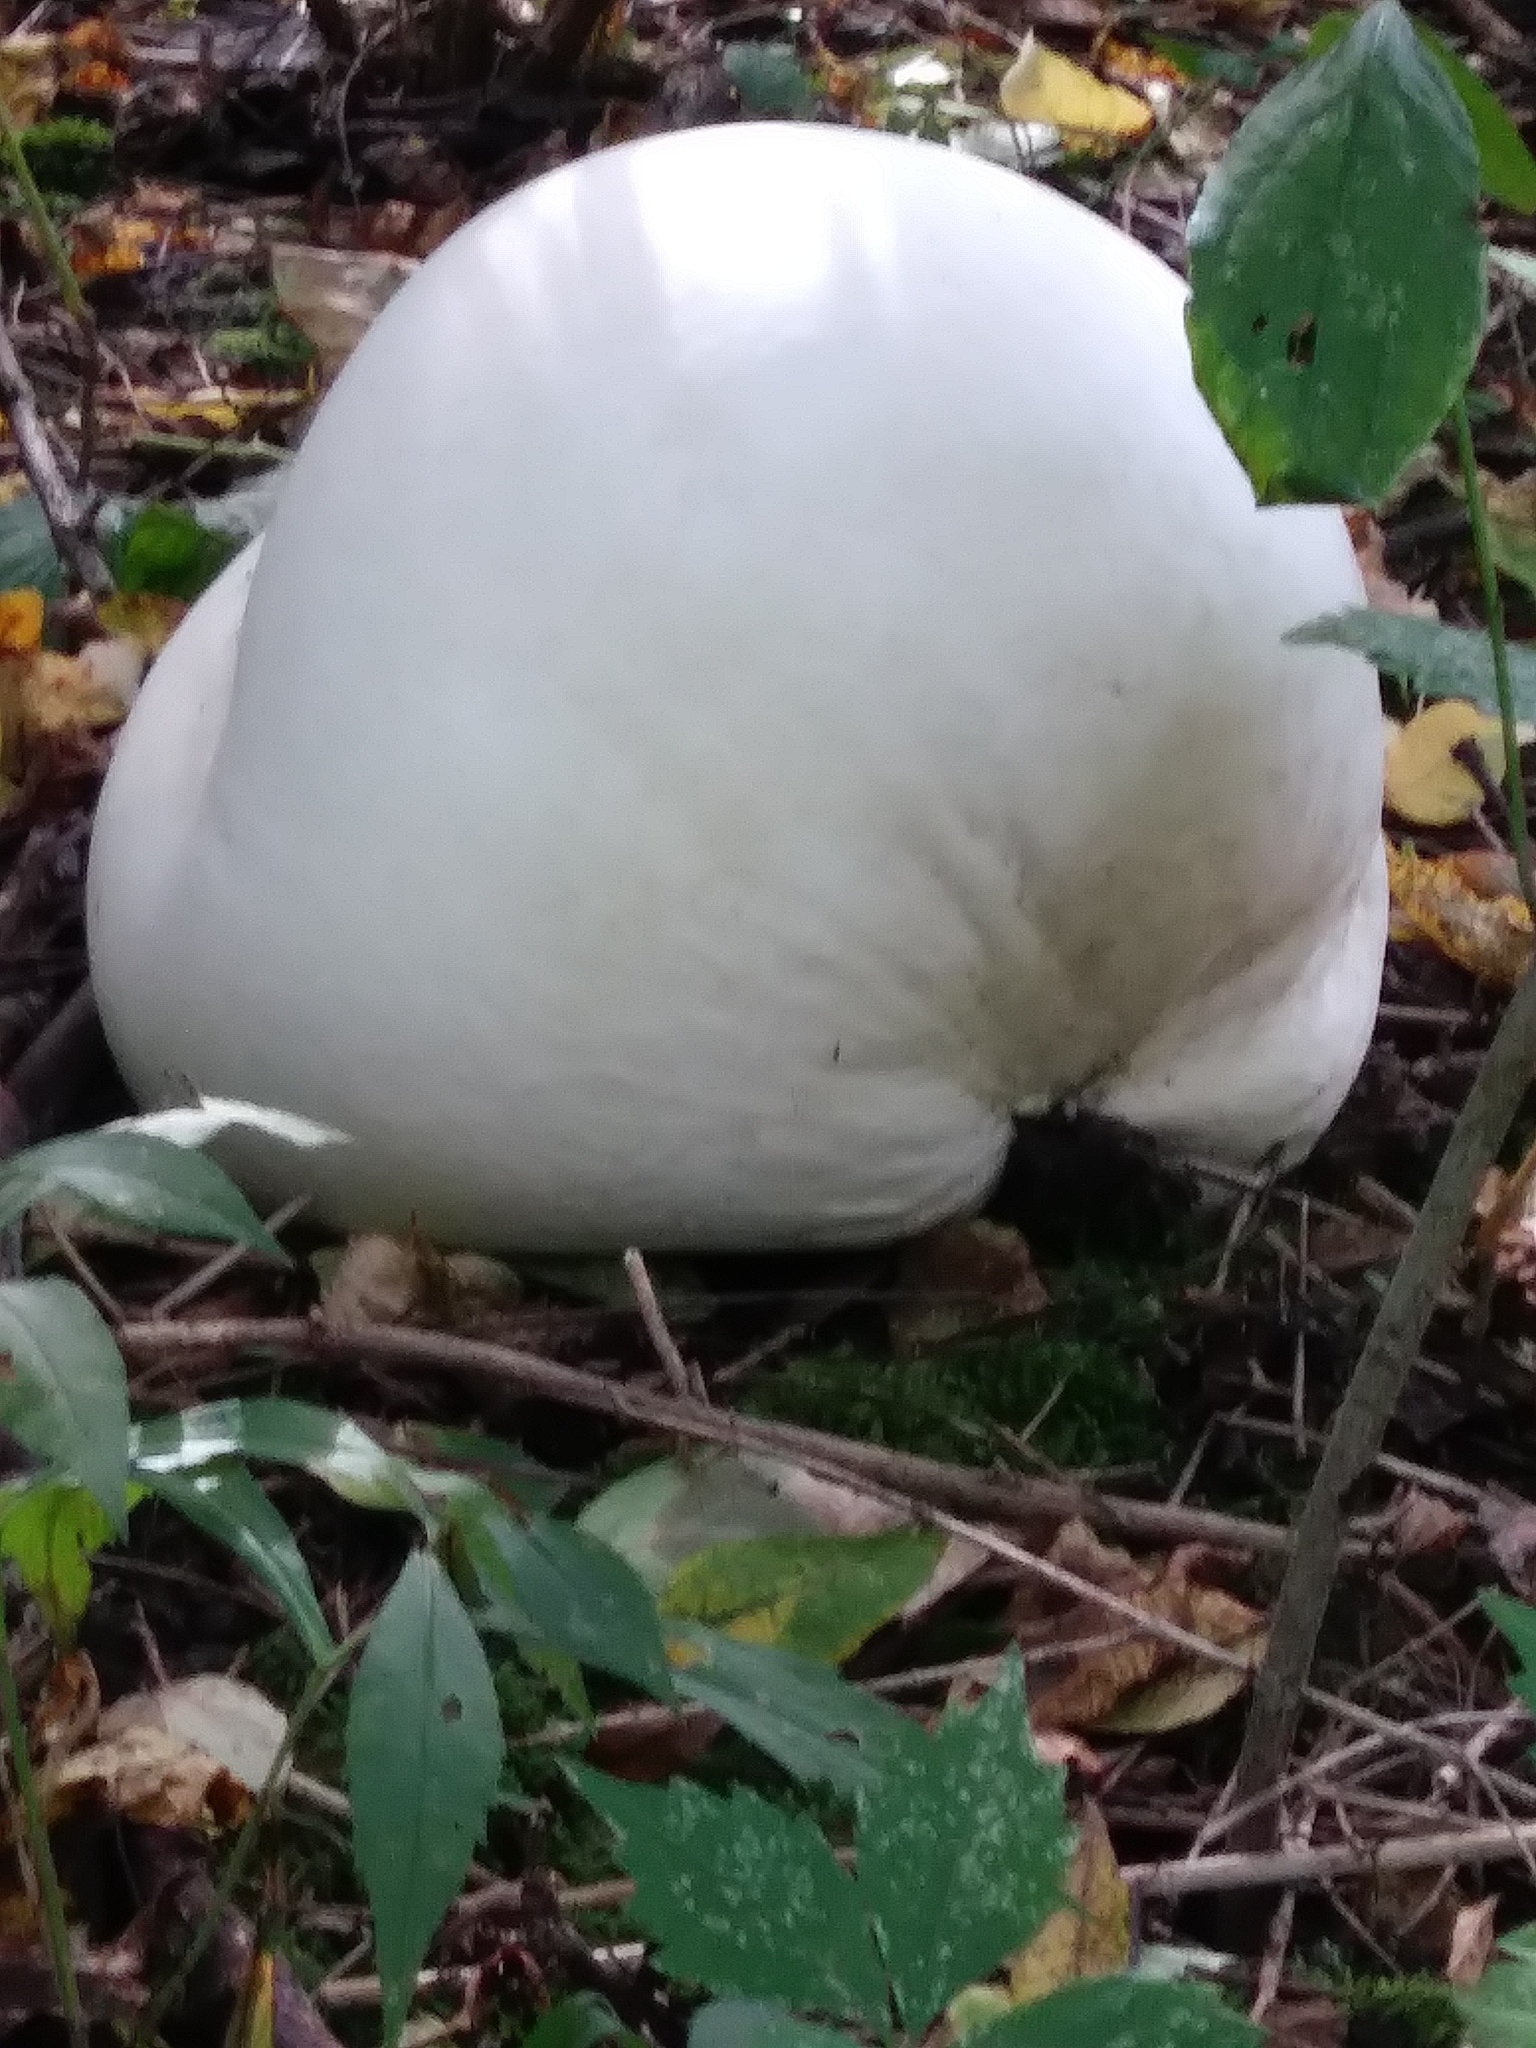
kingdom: Fungi
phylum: Basidiomycota
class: Agaricomycetes
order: Agaricales
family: Lycoperdaceae
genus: Calvatia
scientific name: Calvatia gigantea
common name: Giant puffball
